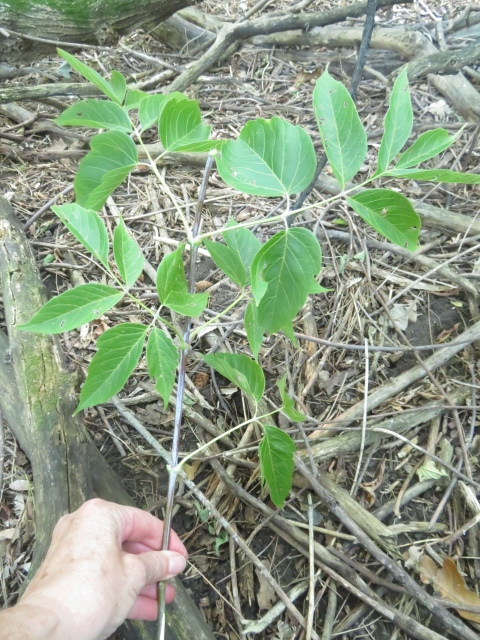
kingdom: Fungi
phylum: Basidiomycota
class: Agaricomycetes
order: Agaricales
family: Lyophyllaceae
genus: Hypsizygus
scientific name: Hypsizygus ulmarius
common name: Elm leech
